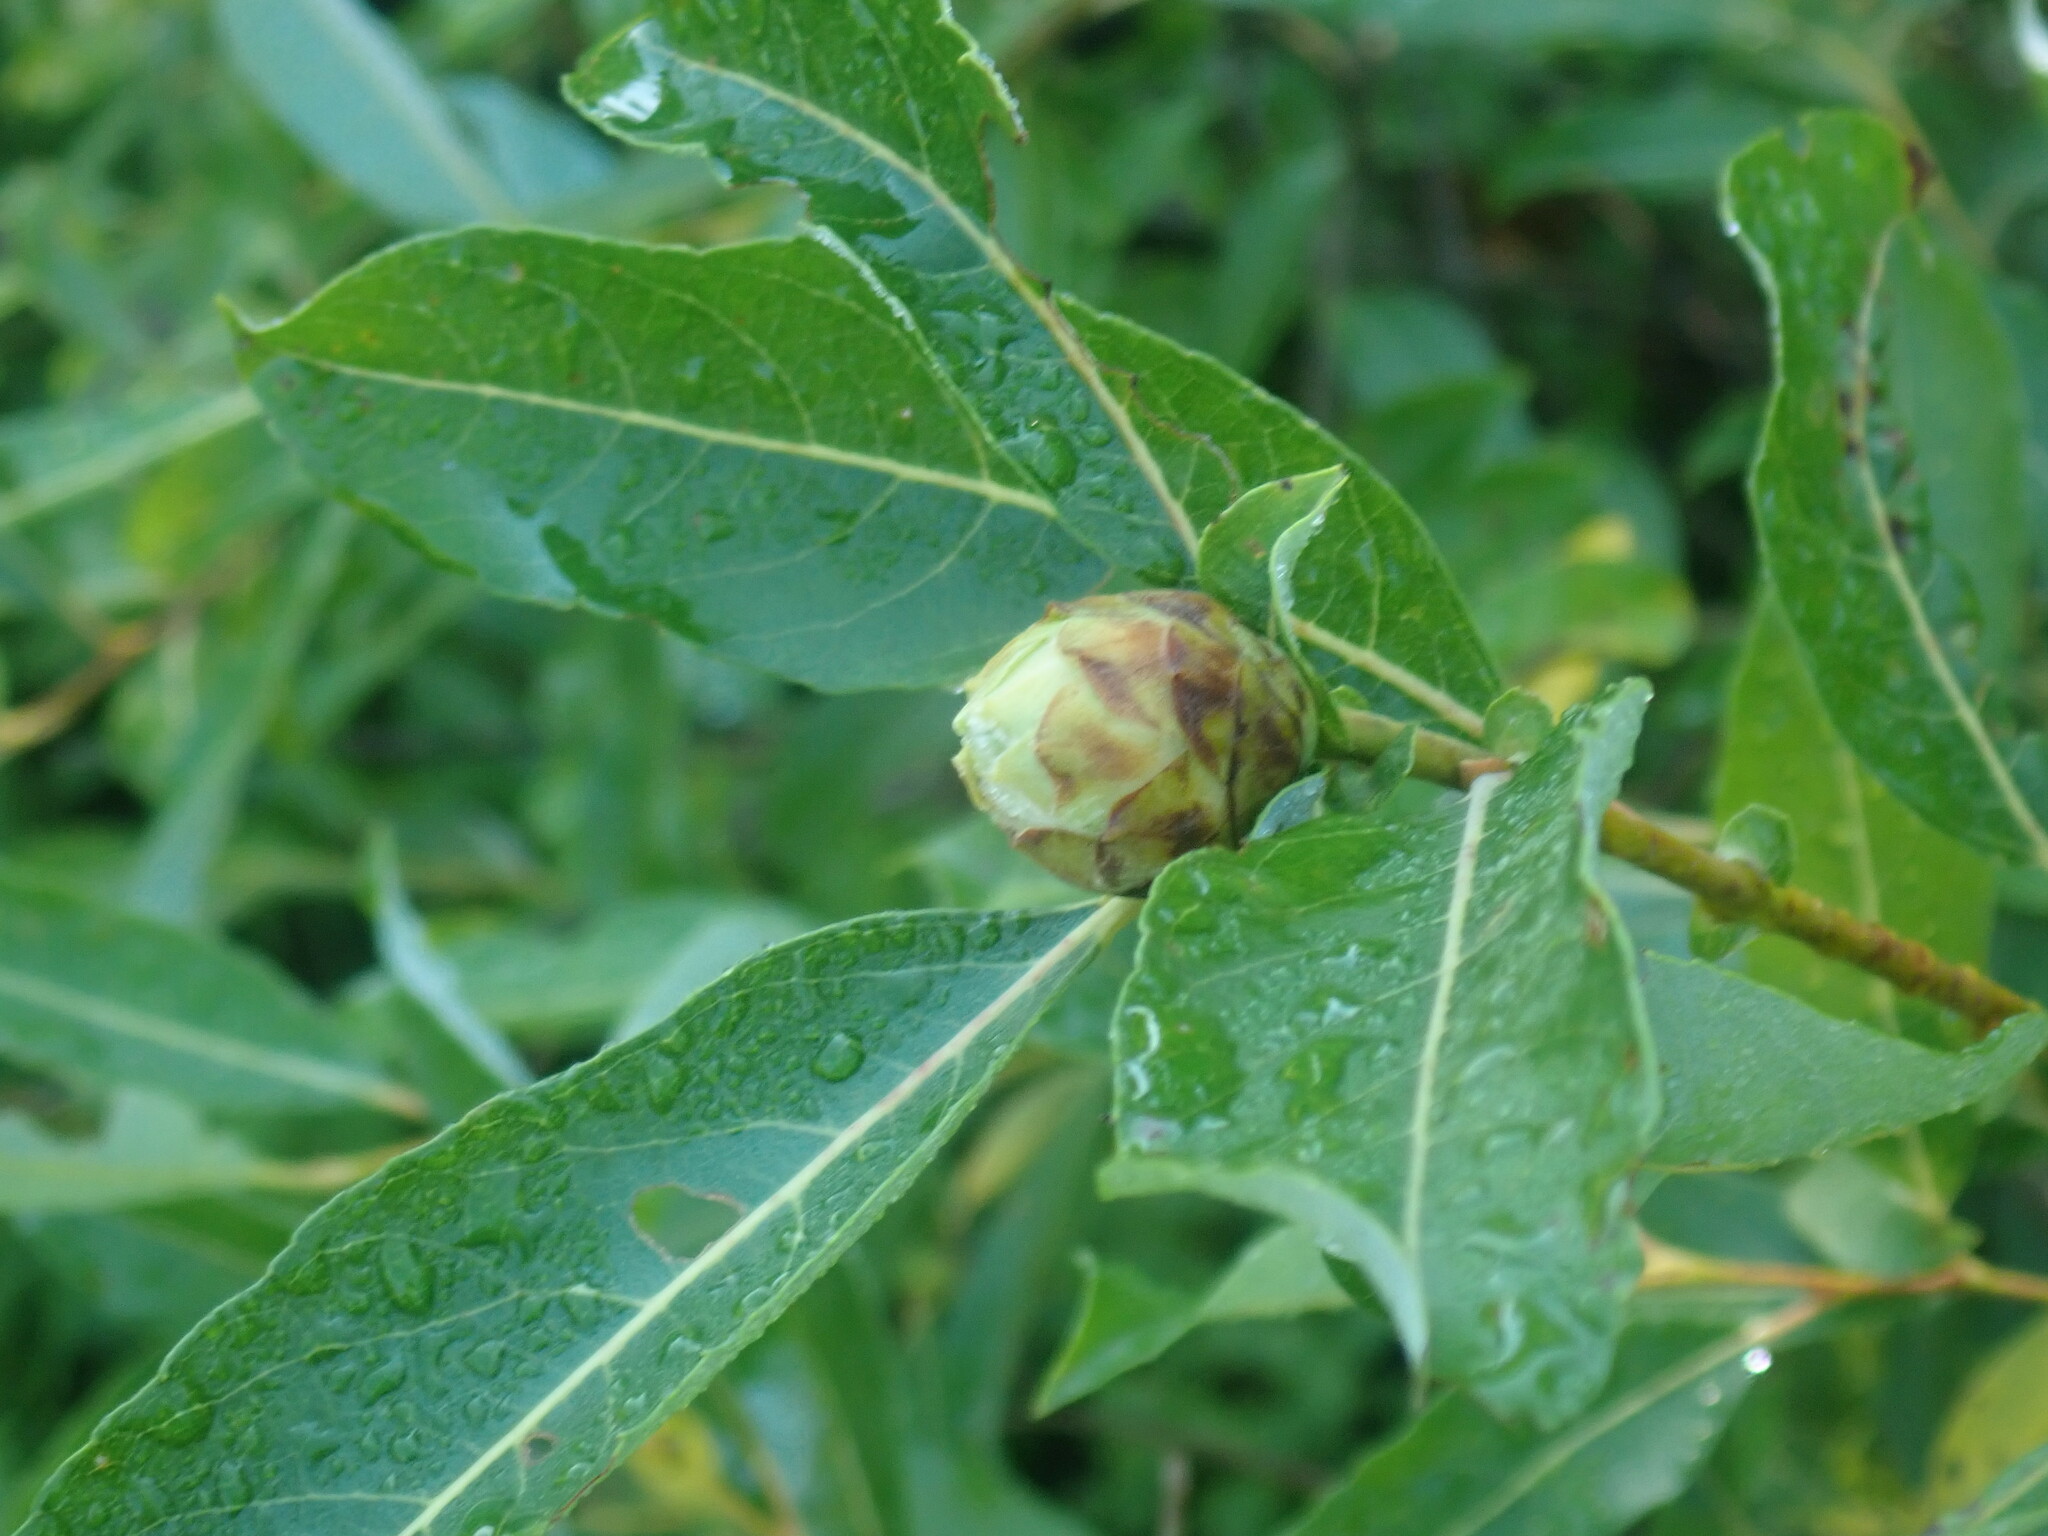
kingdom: Animalia
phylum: Arthropoda
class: Insecta
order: Diptera
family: Cecidomyiidae
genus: Rabdophaga
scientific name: Rabdophaga strobiloides
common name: Willow pinecone gall midge
